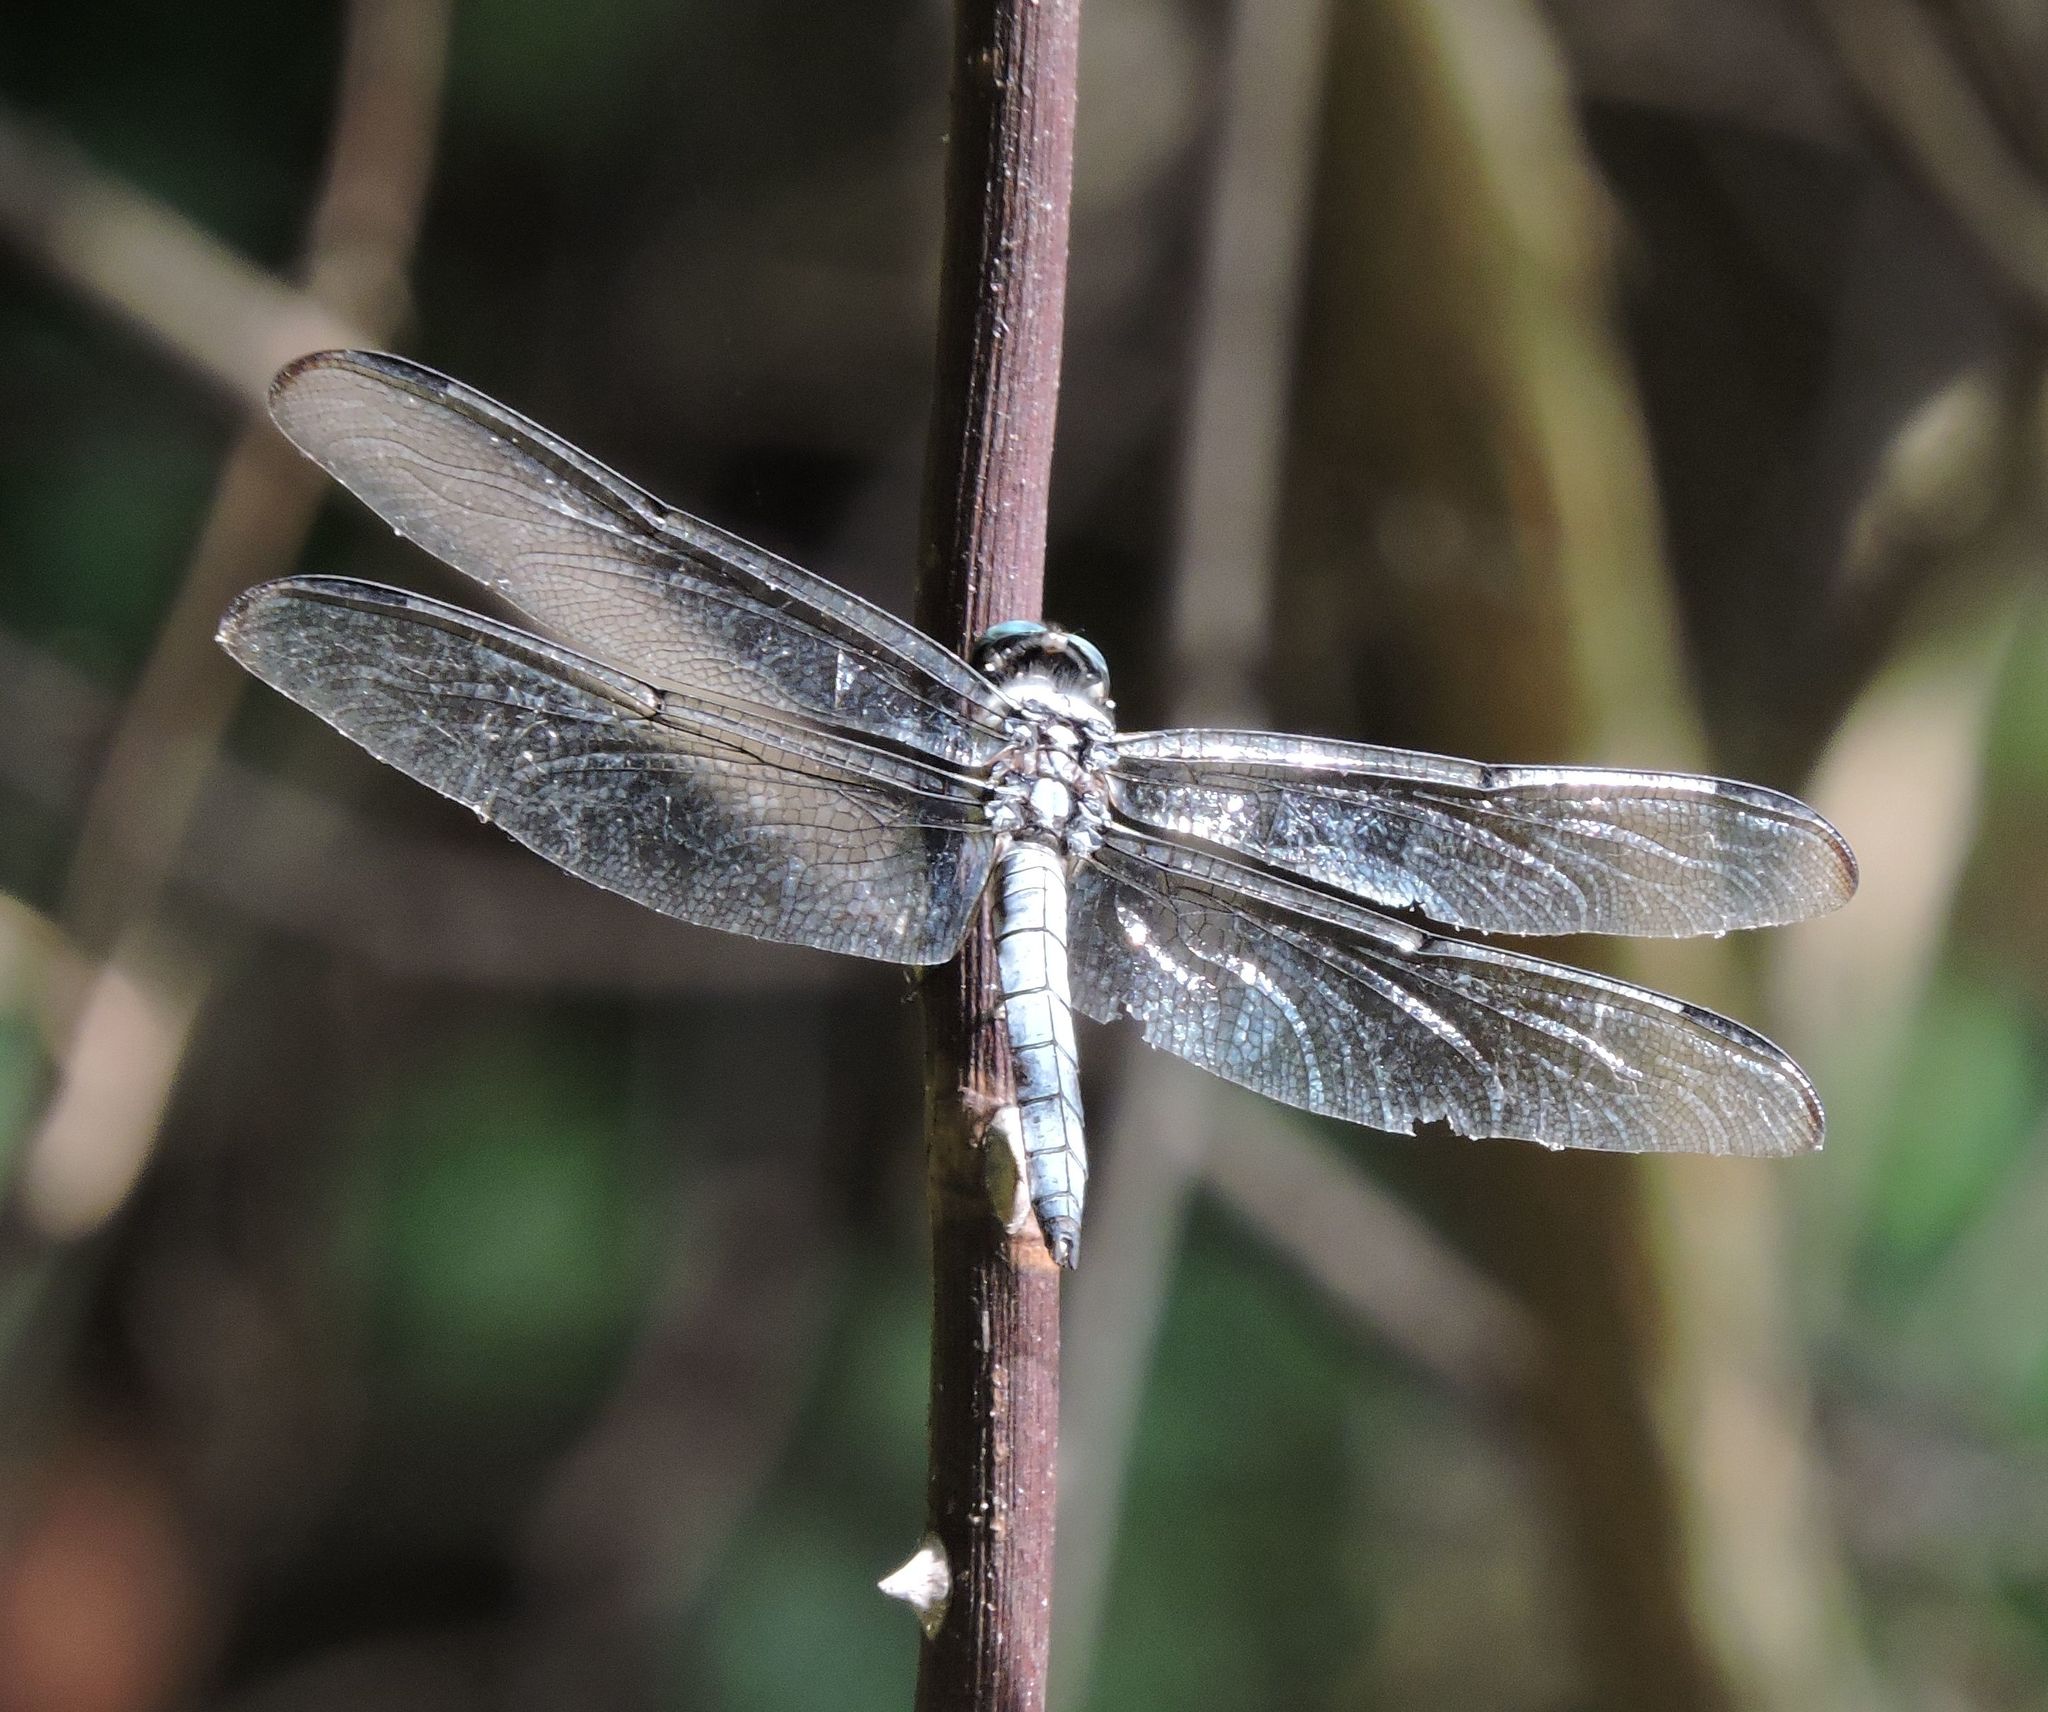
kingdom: Animalia
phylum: Arthropoda
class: Insecta
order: Odonata
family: Libellulidae
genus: Libellula
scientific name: Libellula vibrans
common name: Great blue skimmer
